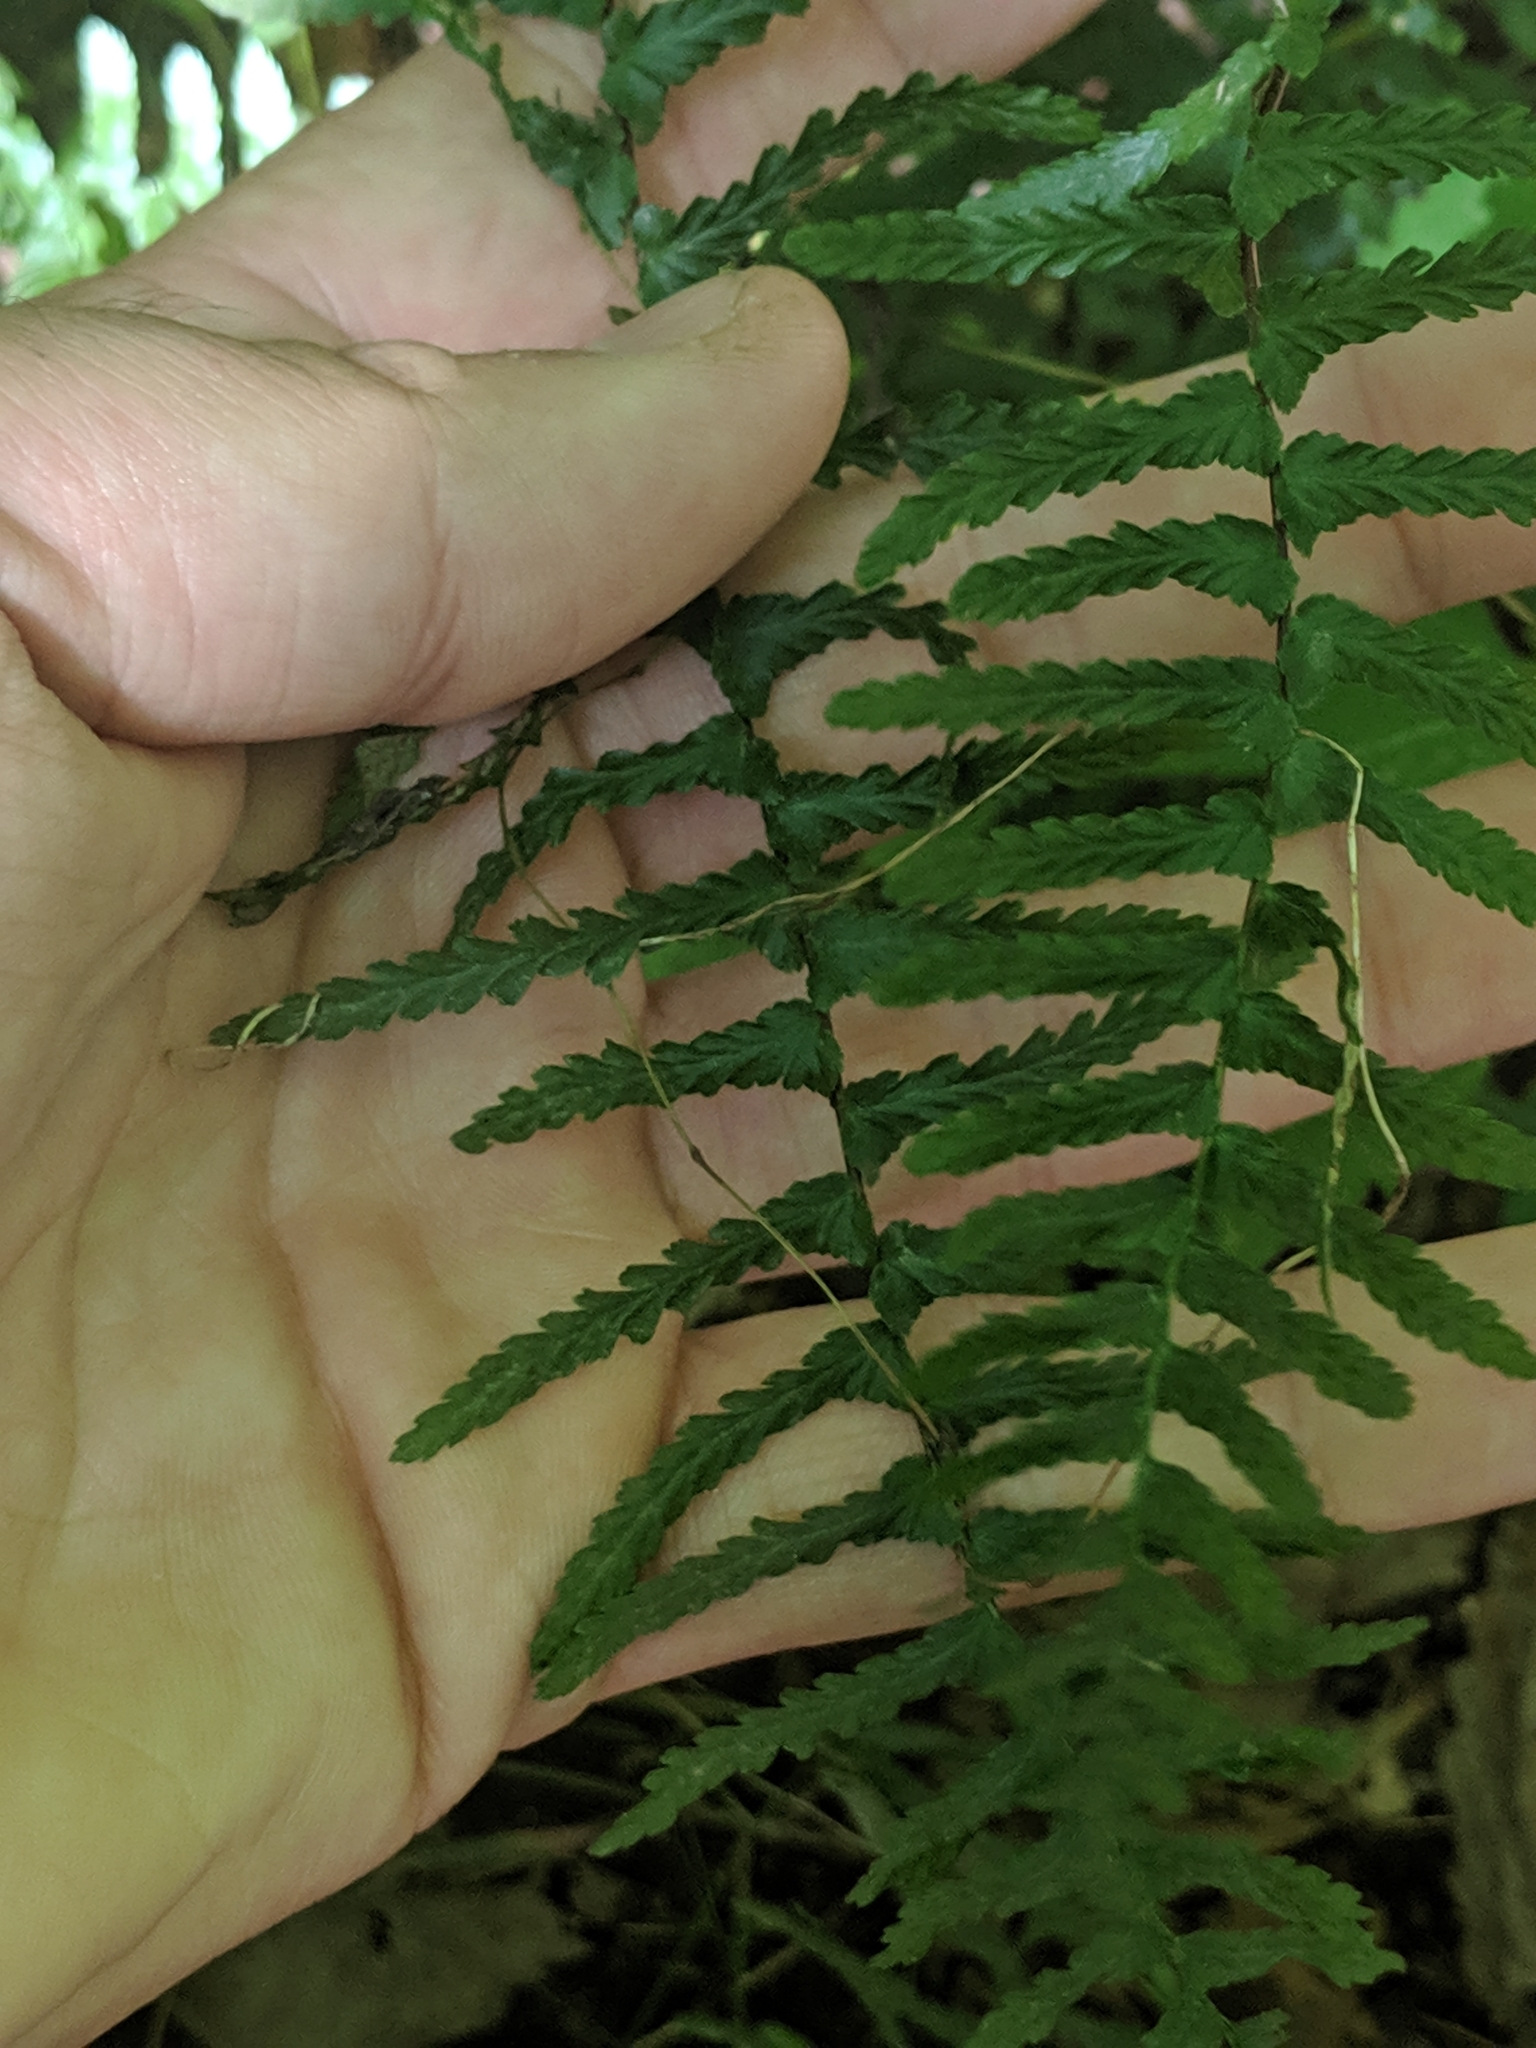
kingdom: Plantae
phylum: Tracheophyta
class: Polypodiopsida
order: Polypodiales
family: Aspleniaceae
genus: Asplenium
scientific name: Asplenium platyneuron
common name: Ebony spleenwort
